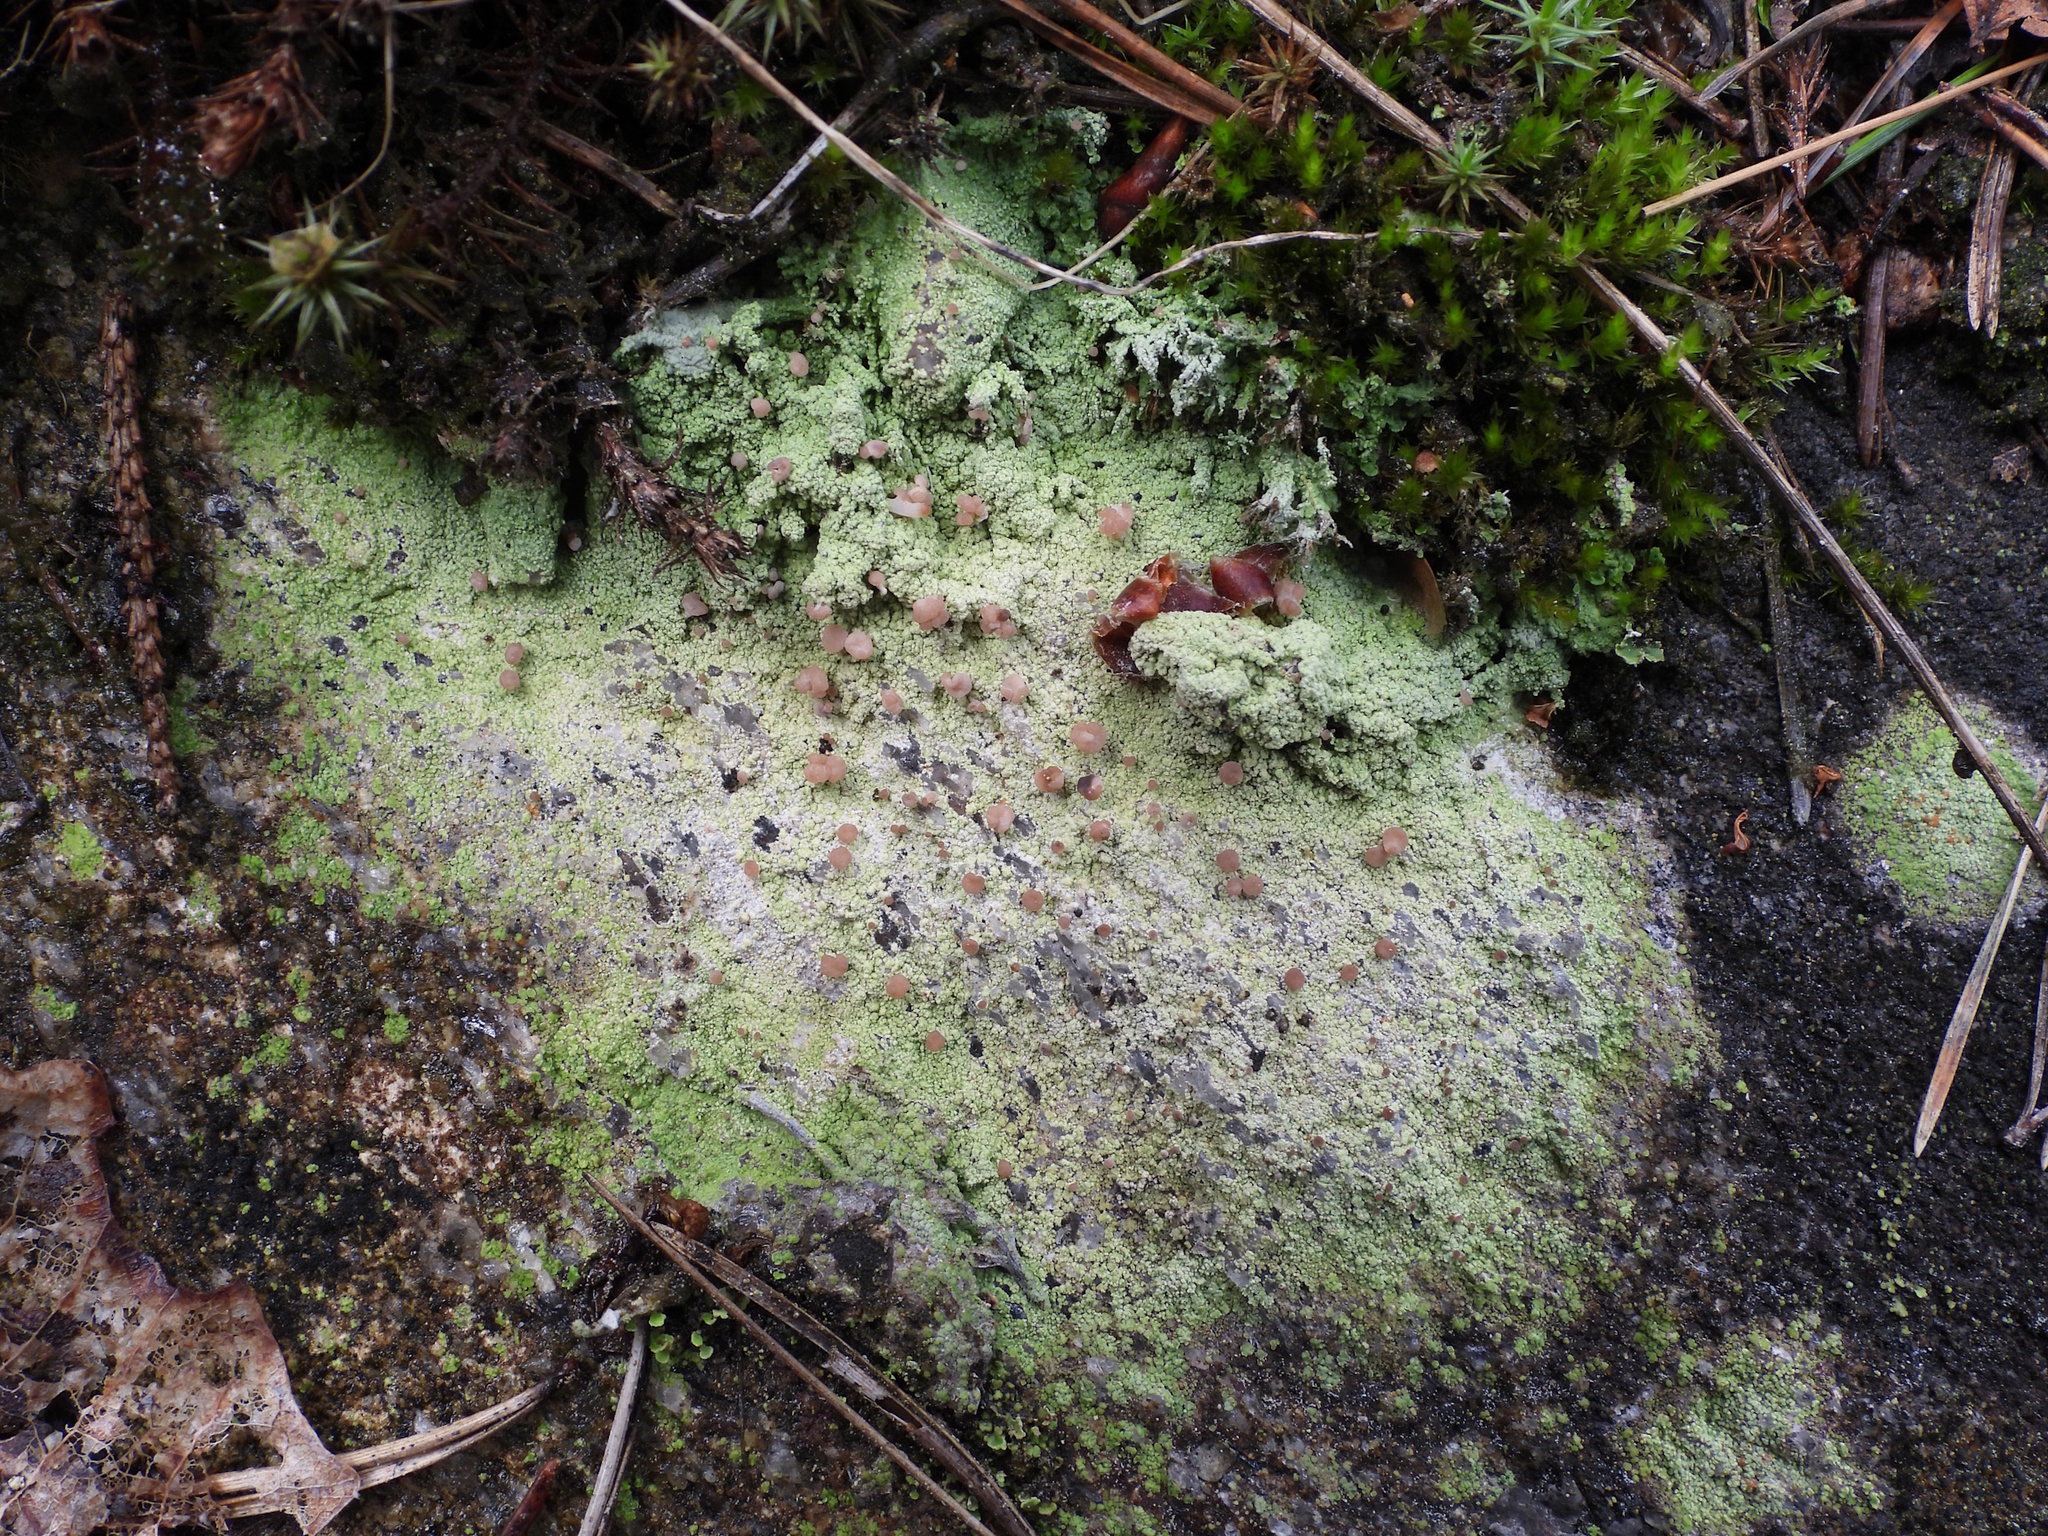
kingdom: Fungi
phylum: Ascomycota
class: Lecanoromycetes
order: Baeomycetales
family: Baeomycetaceae
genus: Baeomyces
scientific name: Baeomyces rufus
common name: Brown beret lichen
